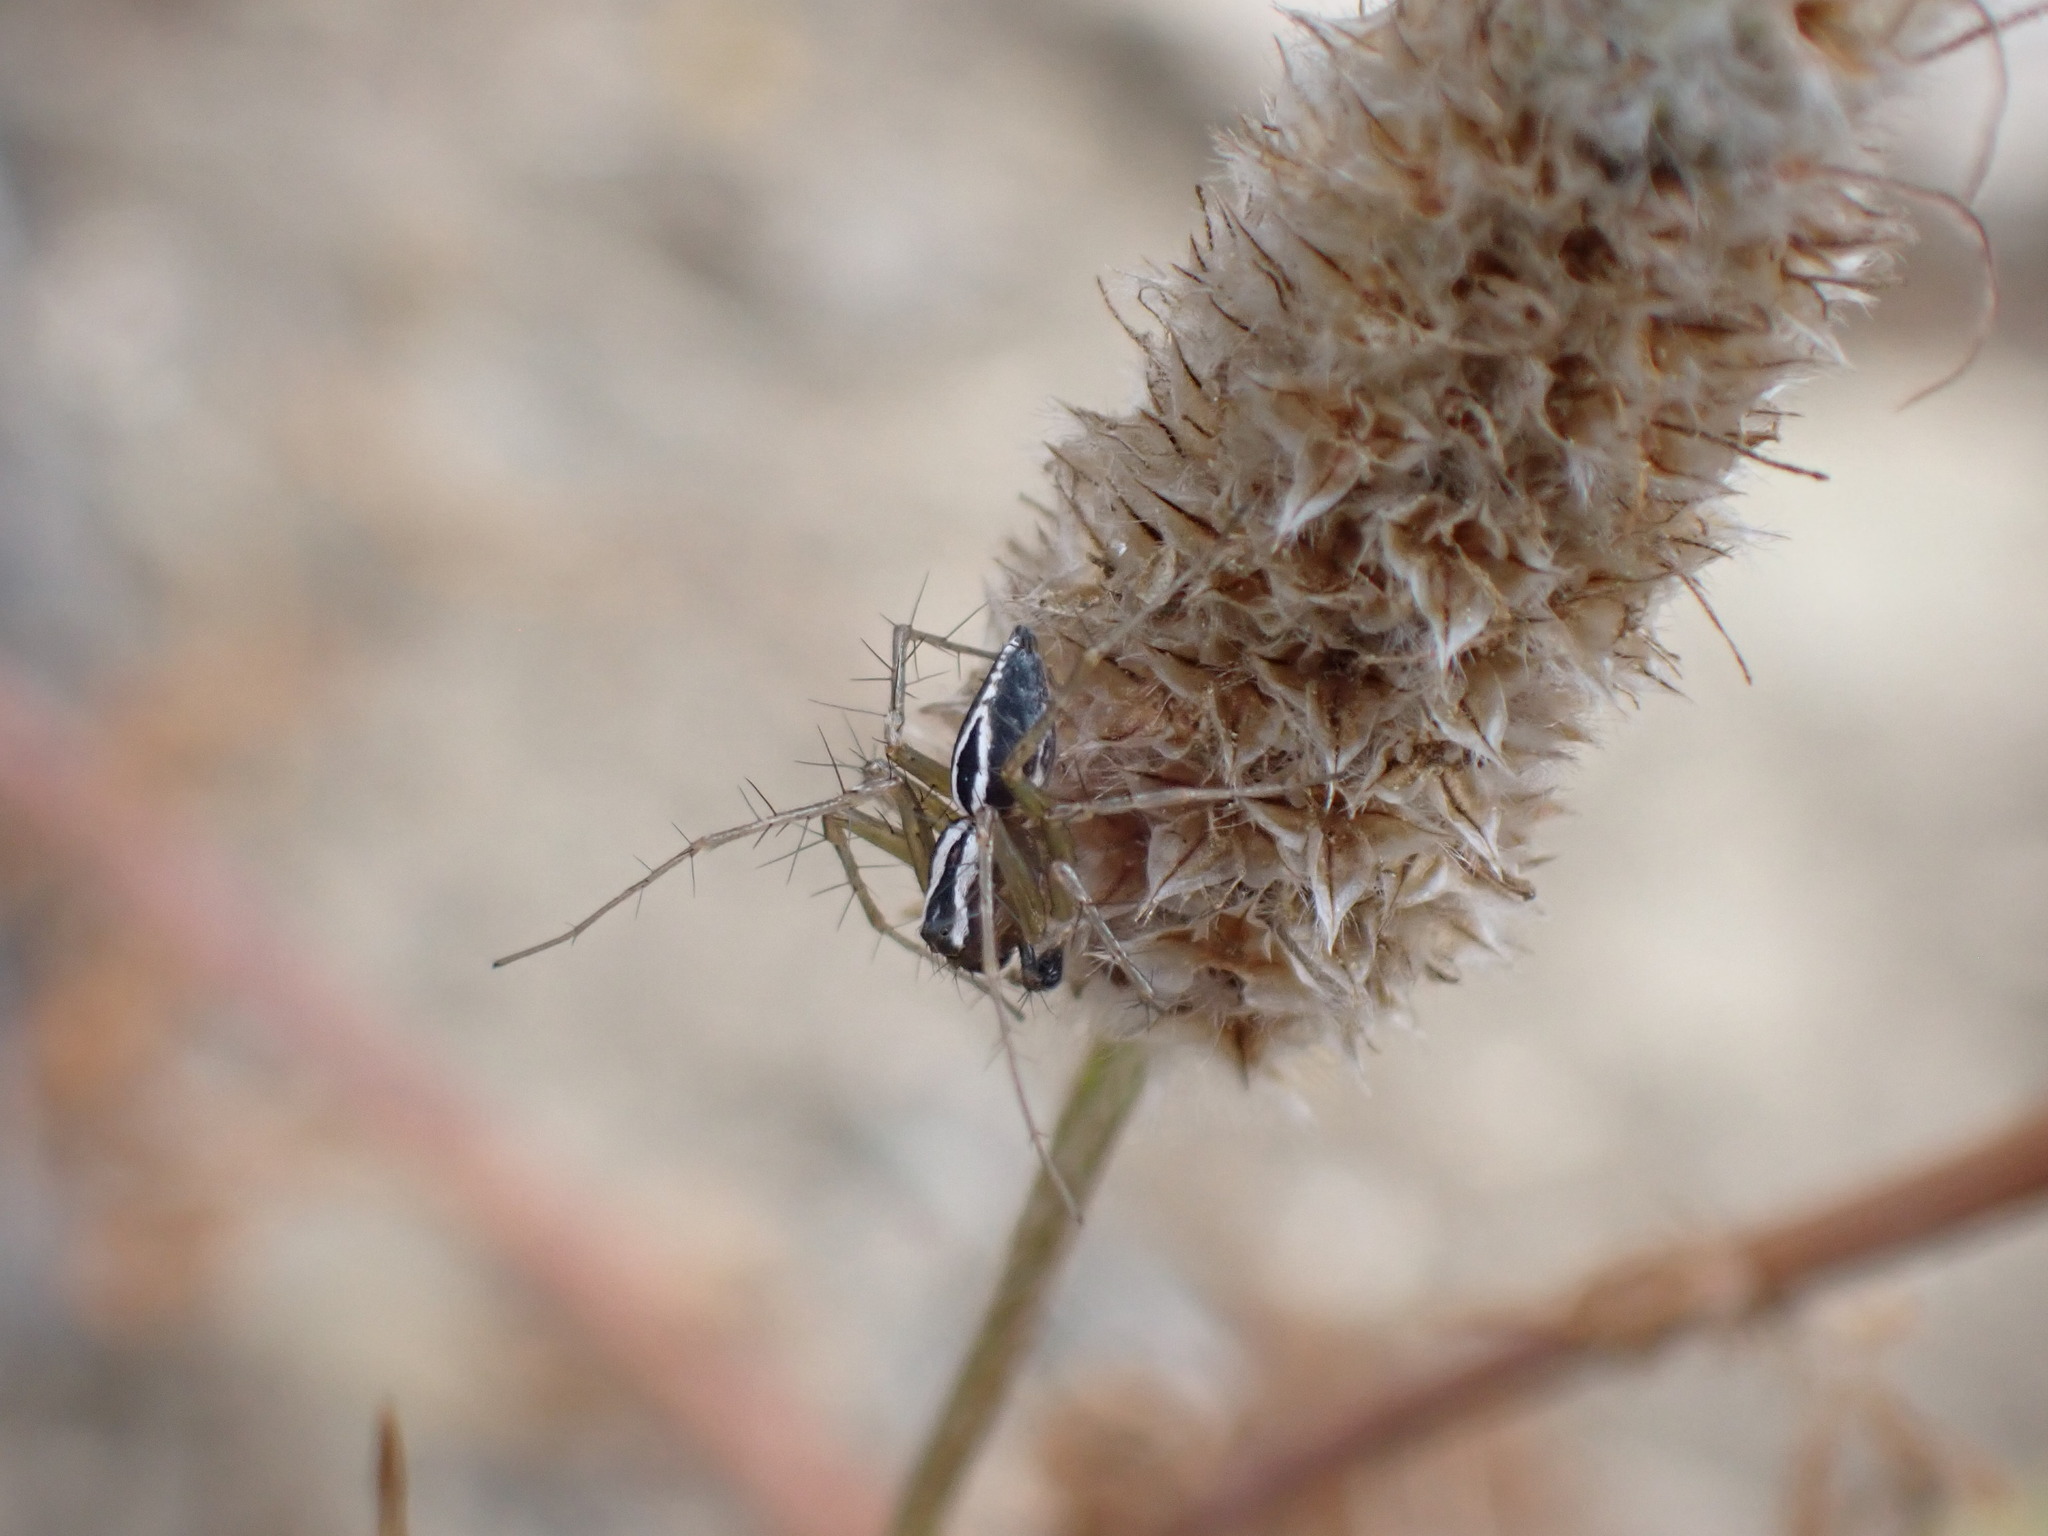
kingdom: Animalia
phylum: Arthropoda
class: Arachnida
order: Araneae
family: Oxyopidae
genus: Oxyopes
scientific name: Oxyopes nigripalpis
